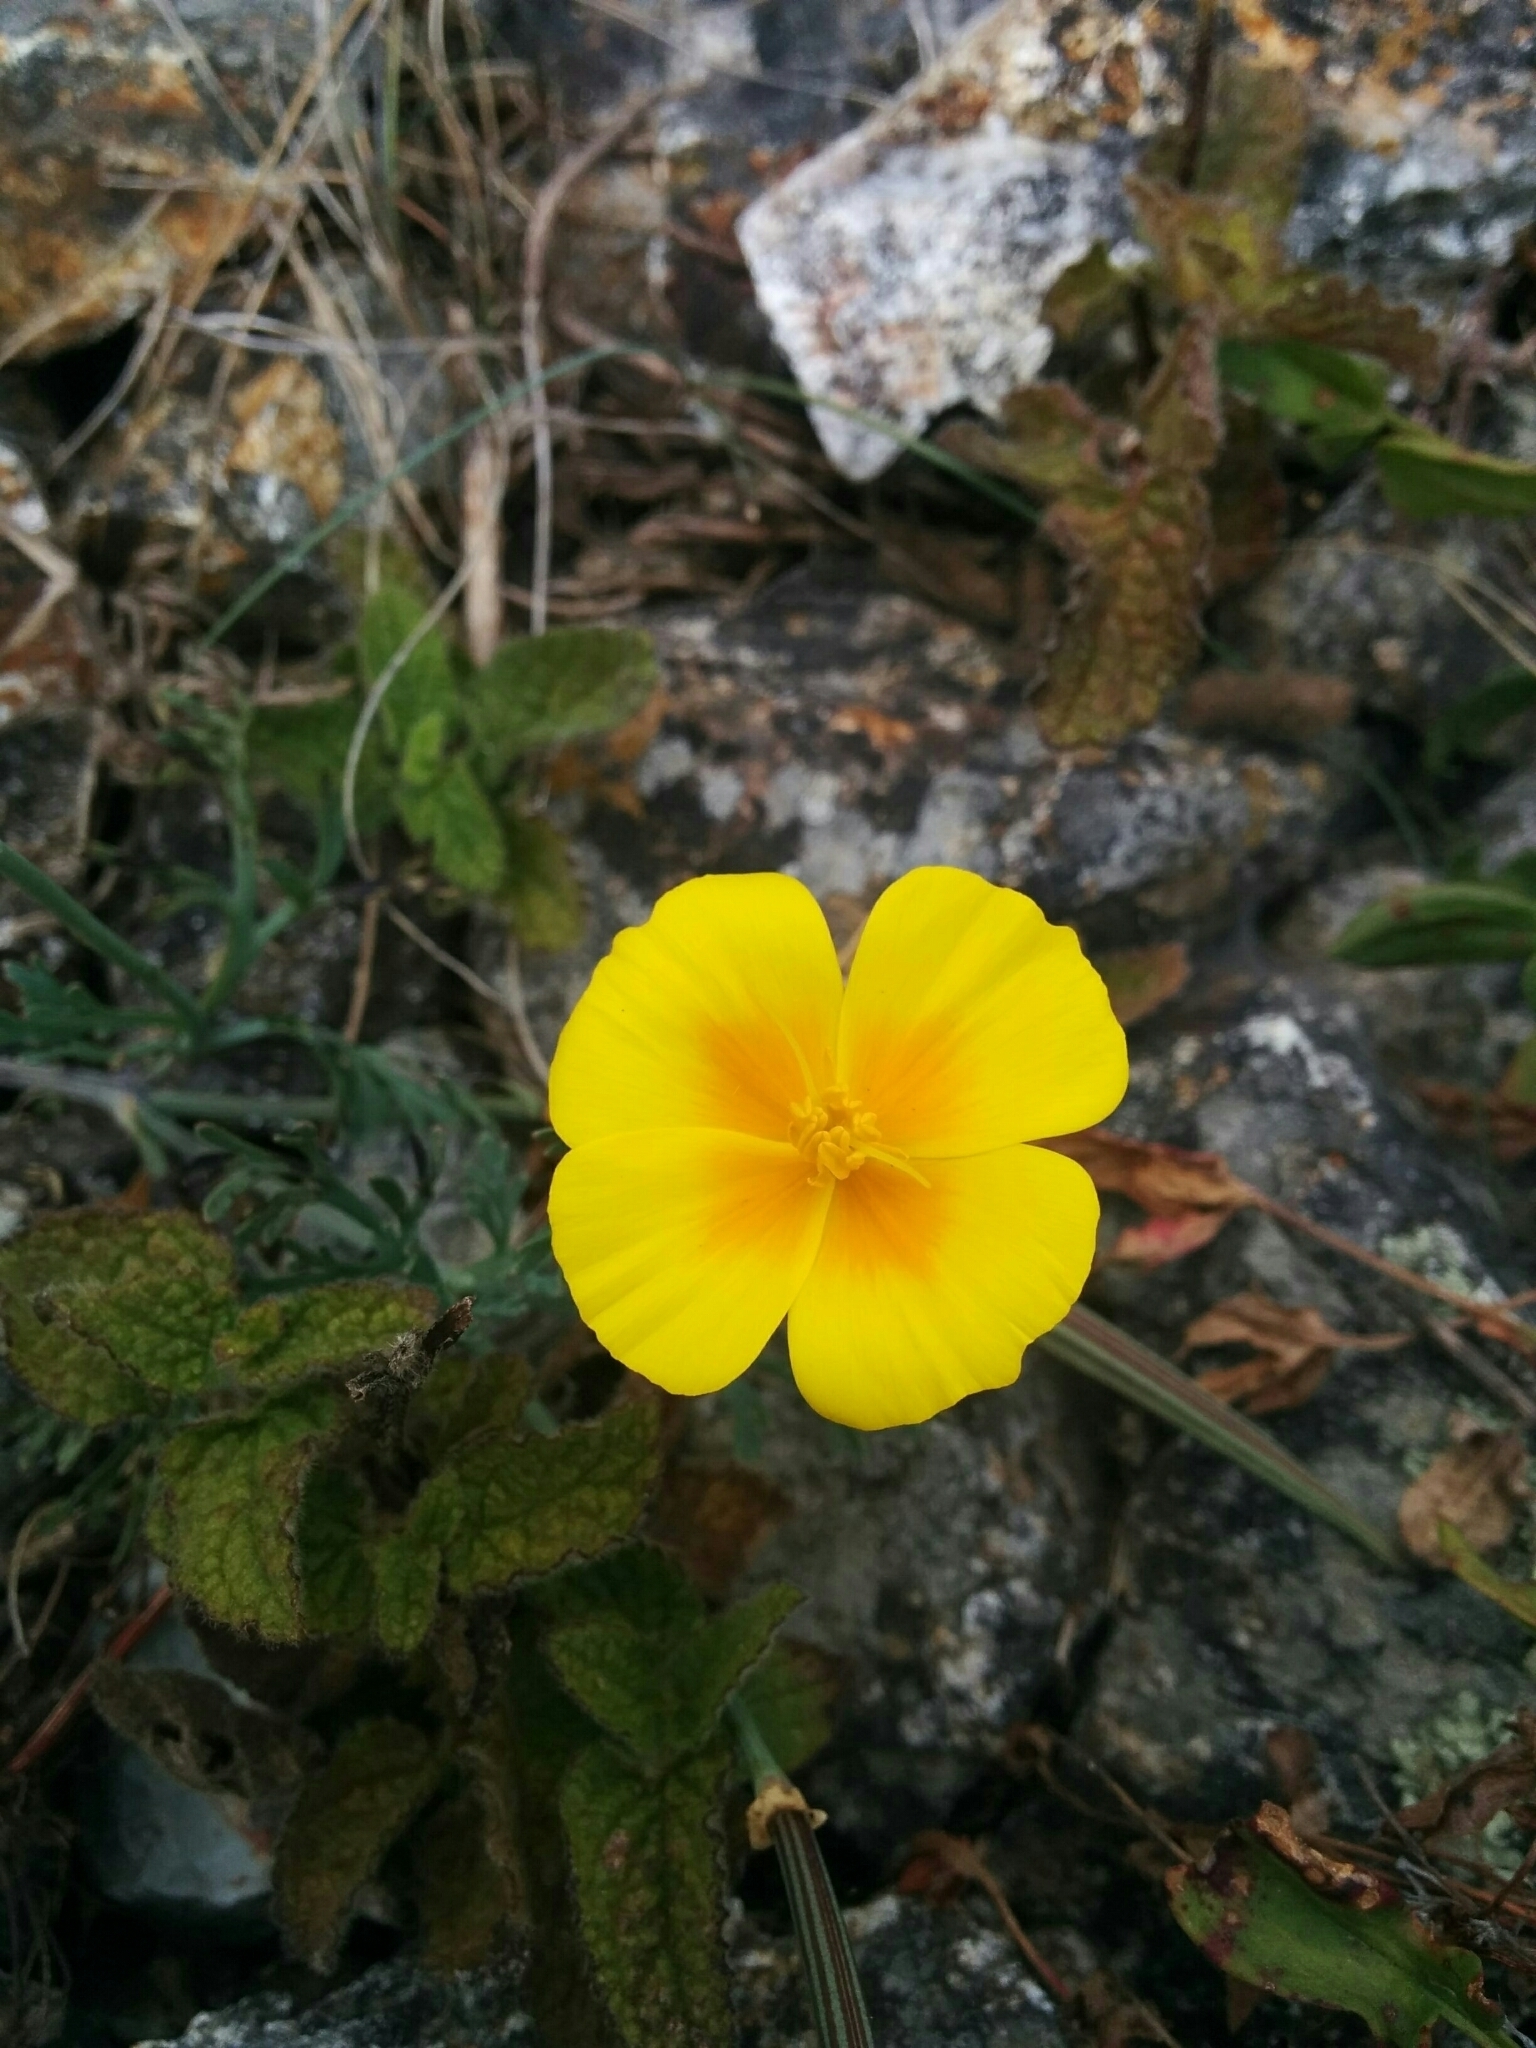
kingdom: Plantae
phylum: Tracheophyta
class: Magnoliopsida
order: Ranunculales
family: Papaveraceae
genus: Eschscholzia
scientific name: Eschscholzia californica
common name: California poppy
